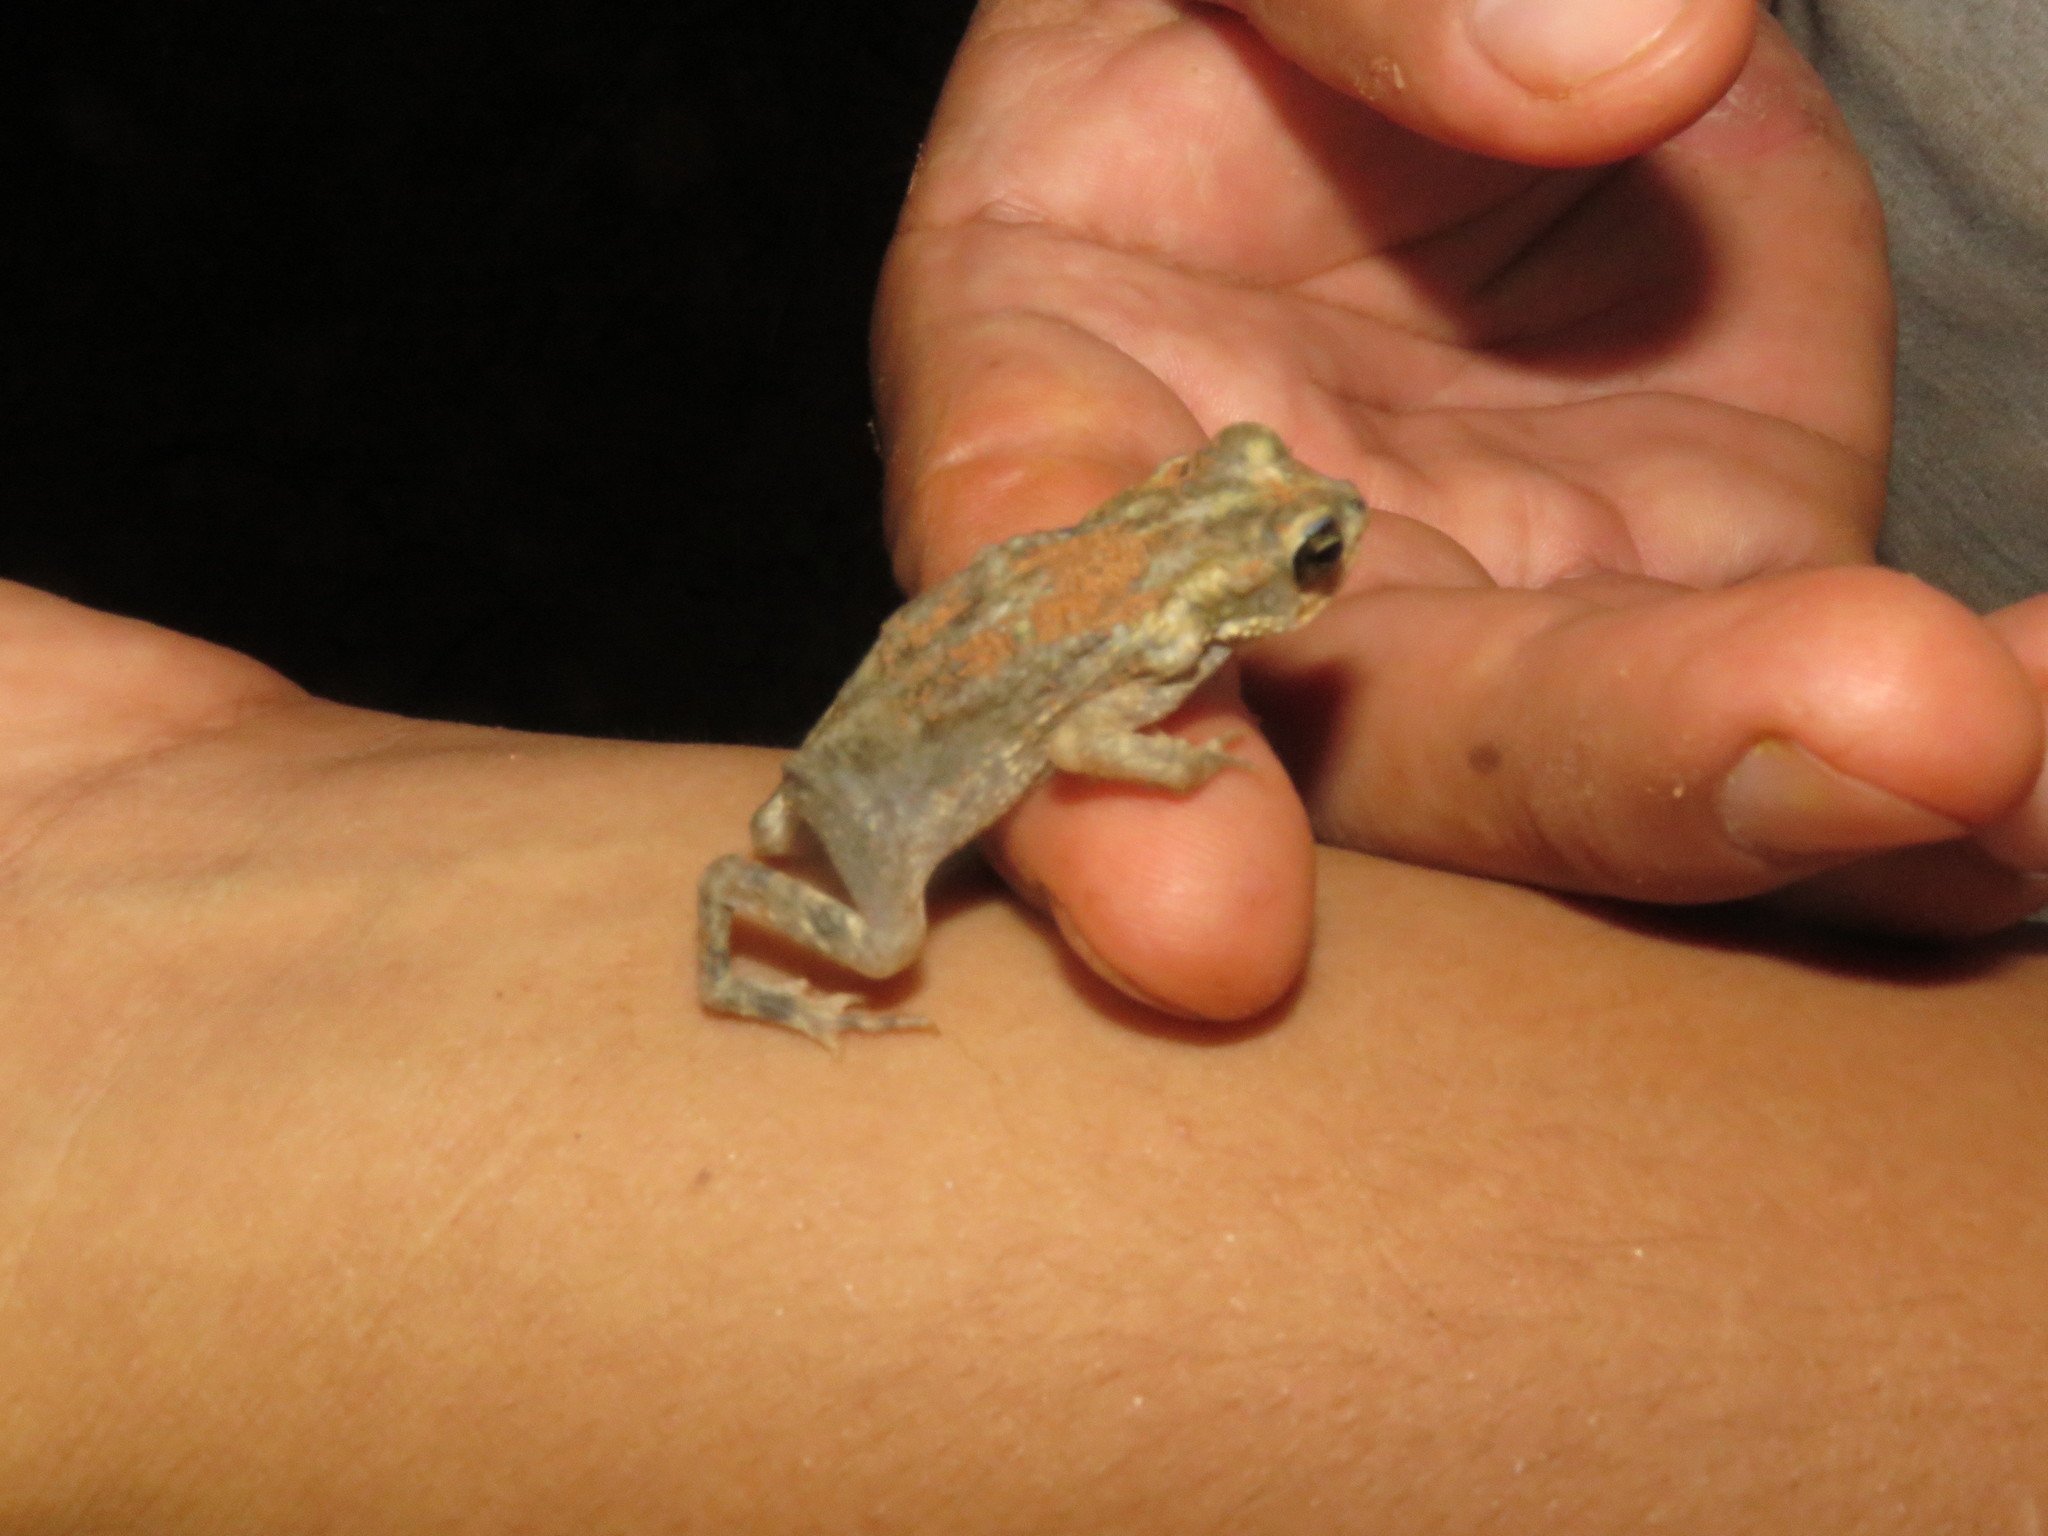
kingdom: Animalia
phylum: Chordata
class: Amphibia
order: Anura
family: Bufonidae
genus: Rhinella
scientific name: Rhinella major
